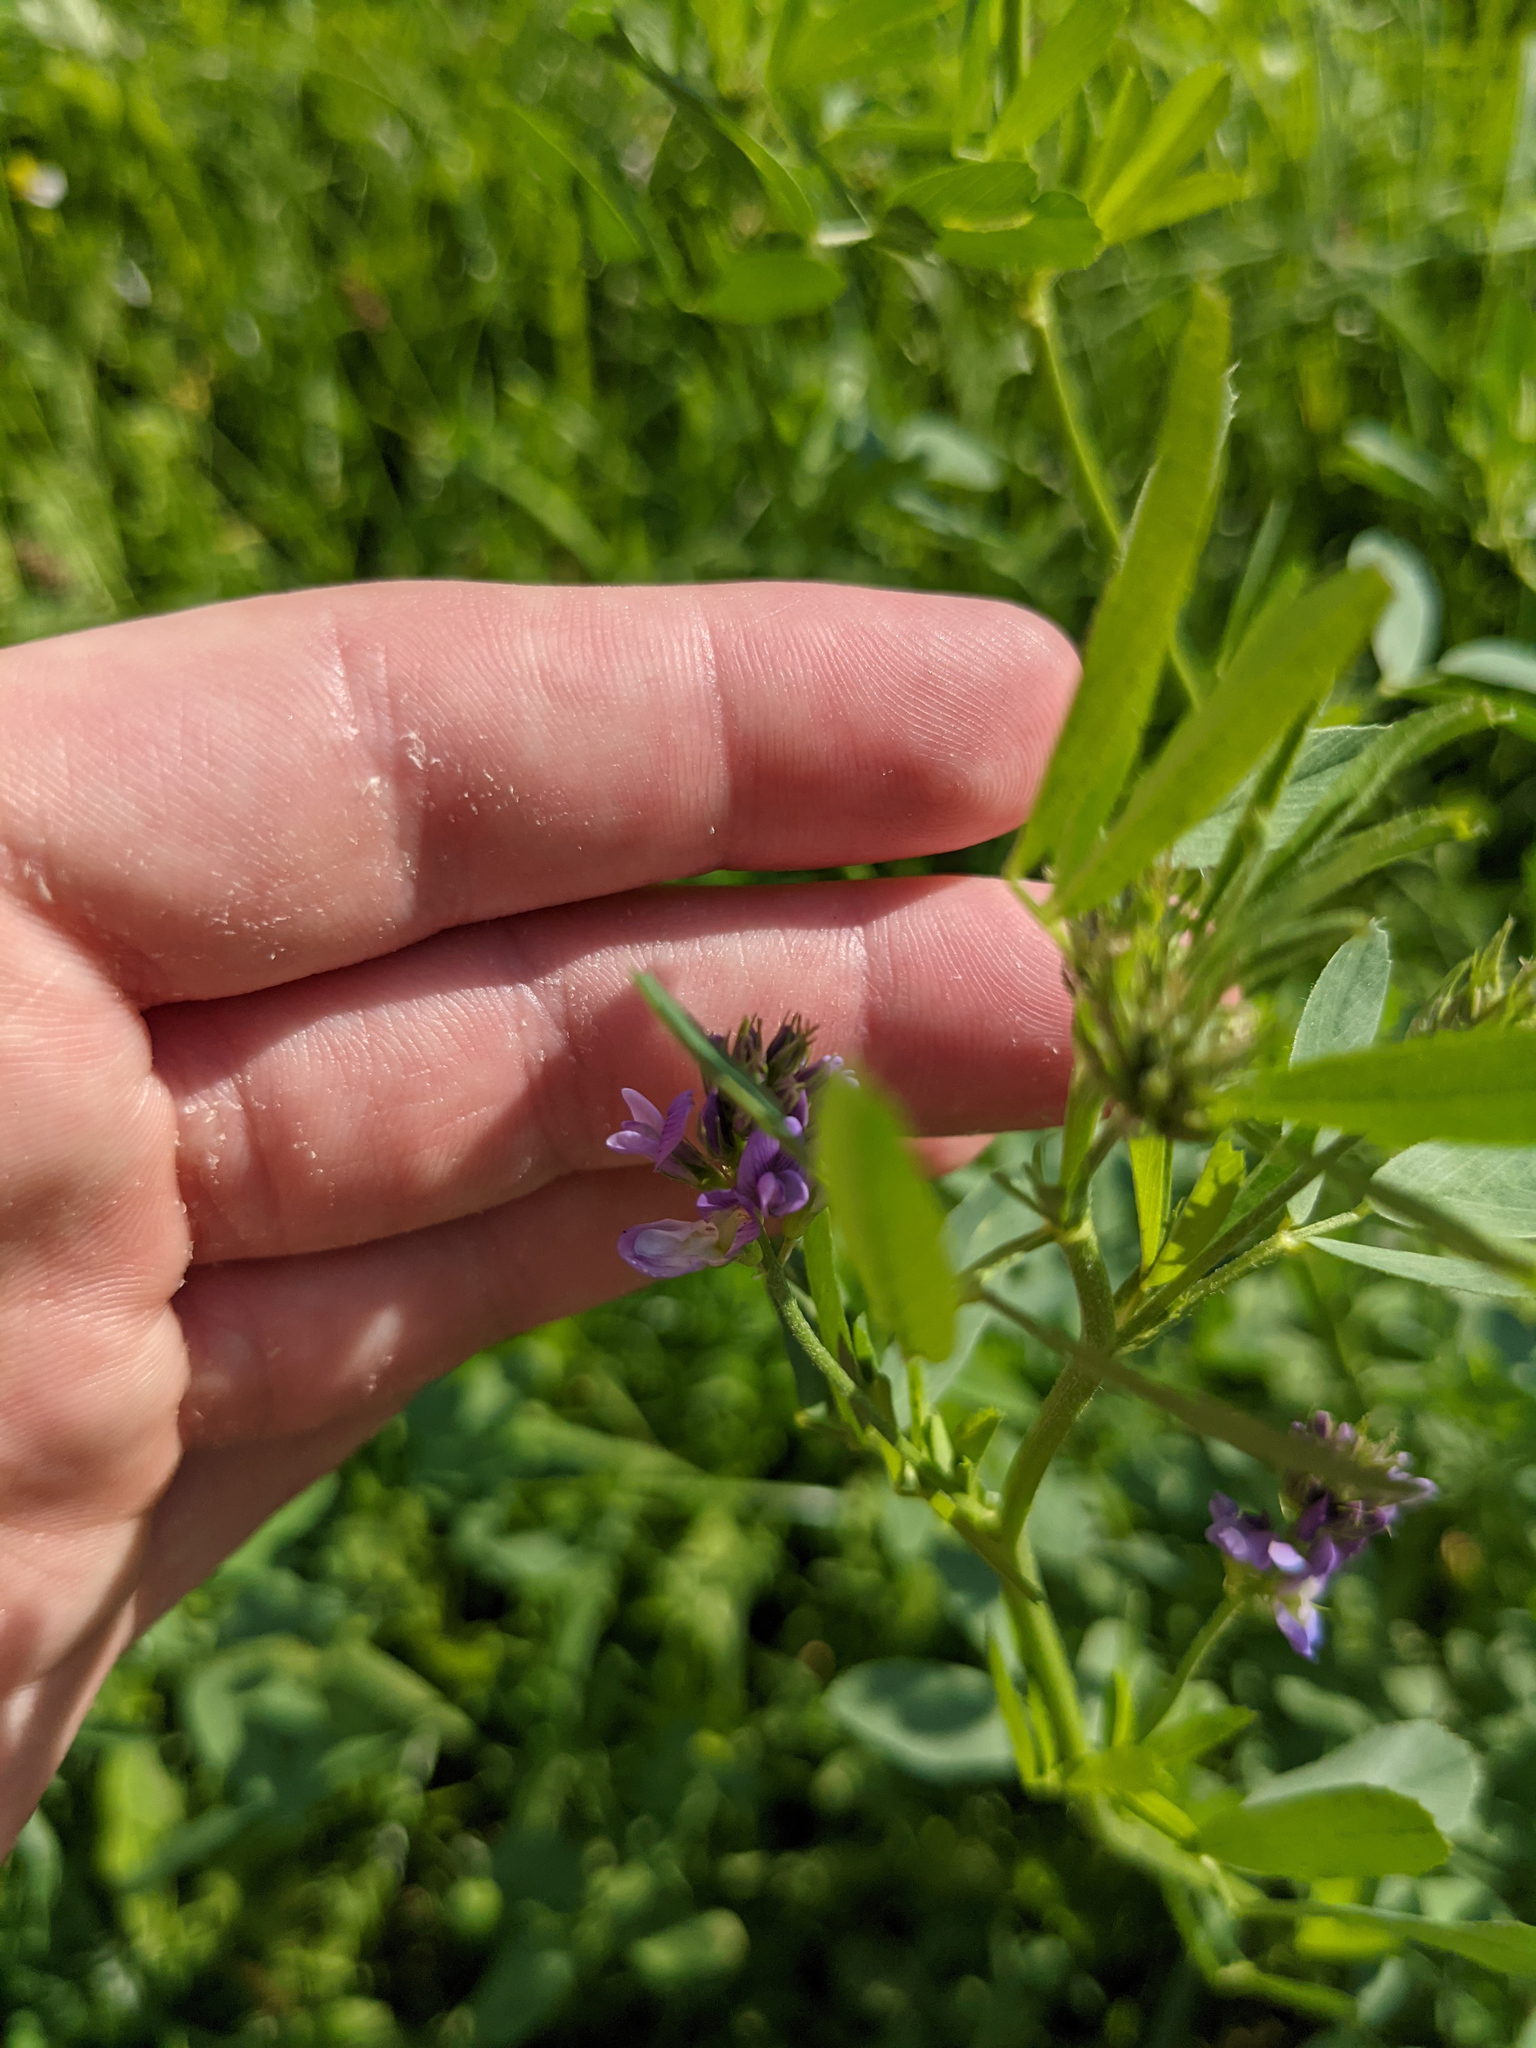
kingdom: Plantae
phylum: Tracheophyta
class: Magnoliopsida
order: Fabales
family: Fabaceae
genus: Medicago
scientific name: Medicago
